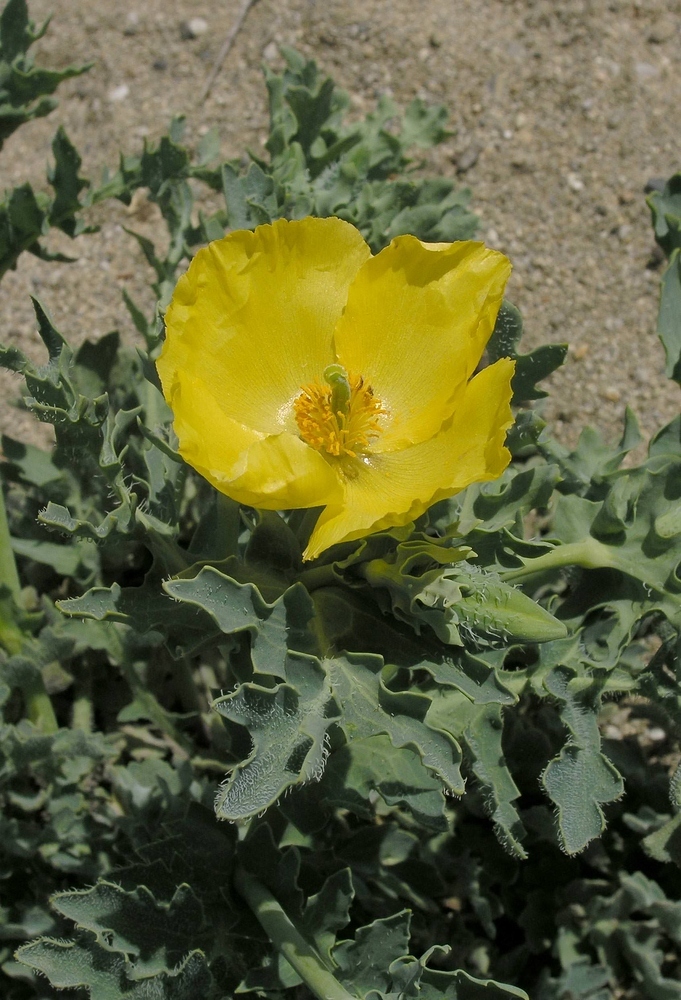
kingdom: Plantae
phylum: Tracheophyta
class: Magnoliopsida
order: Ranunculales
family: Papaveraceae
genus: Glaucium
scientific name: Glaucium flavum
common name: Yellow horned-poppy
